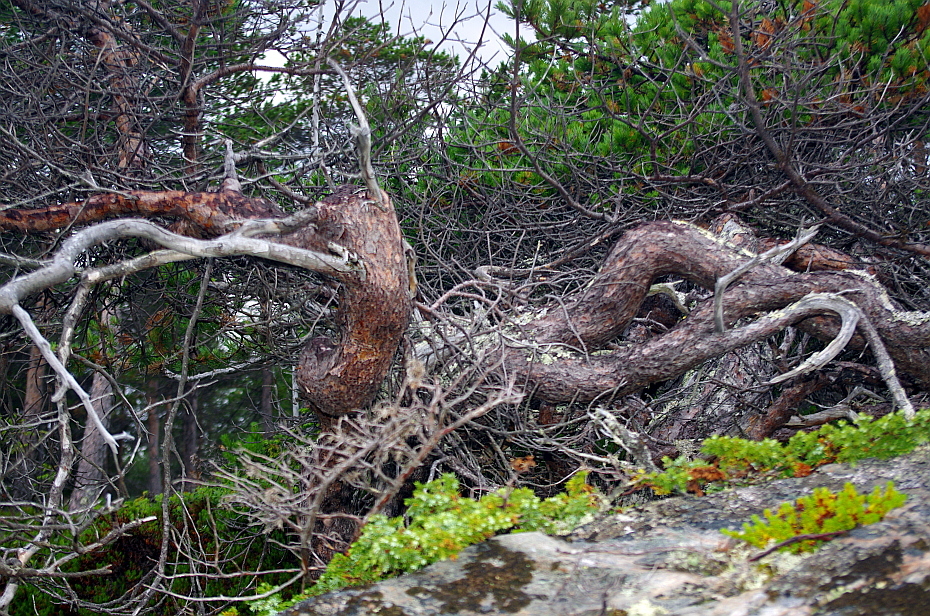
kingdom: Plantae
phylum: Tracheophyta
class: Pinopsida
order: Pinales
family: Pinaceae
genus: Pinus
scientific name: Pinus sylvestris
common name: Scots pine
